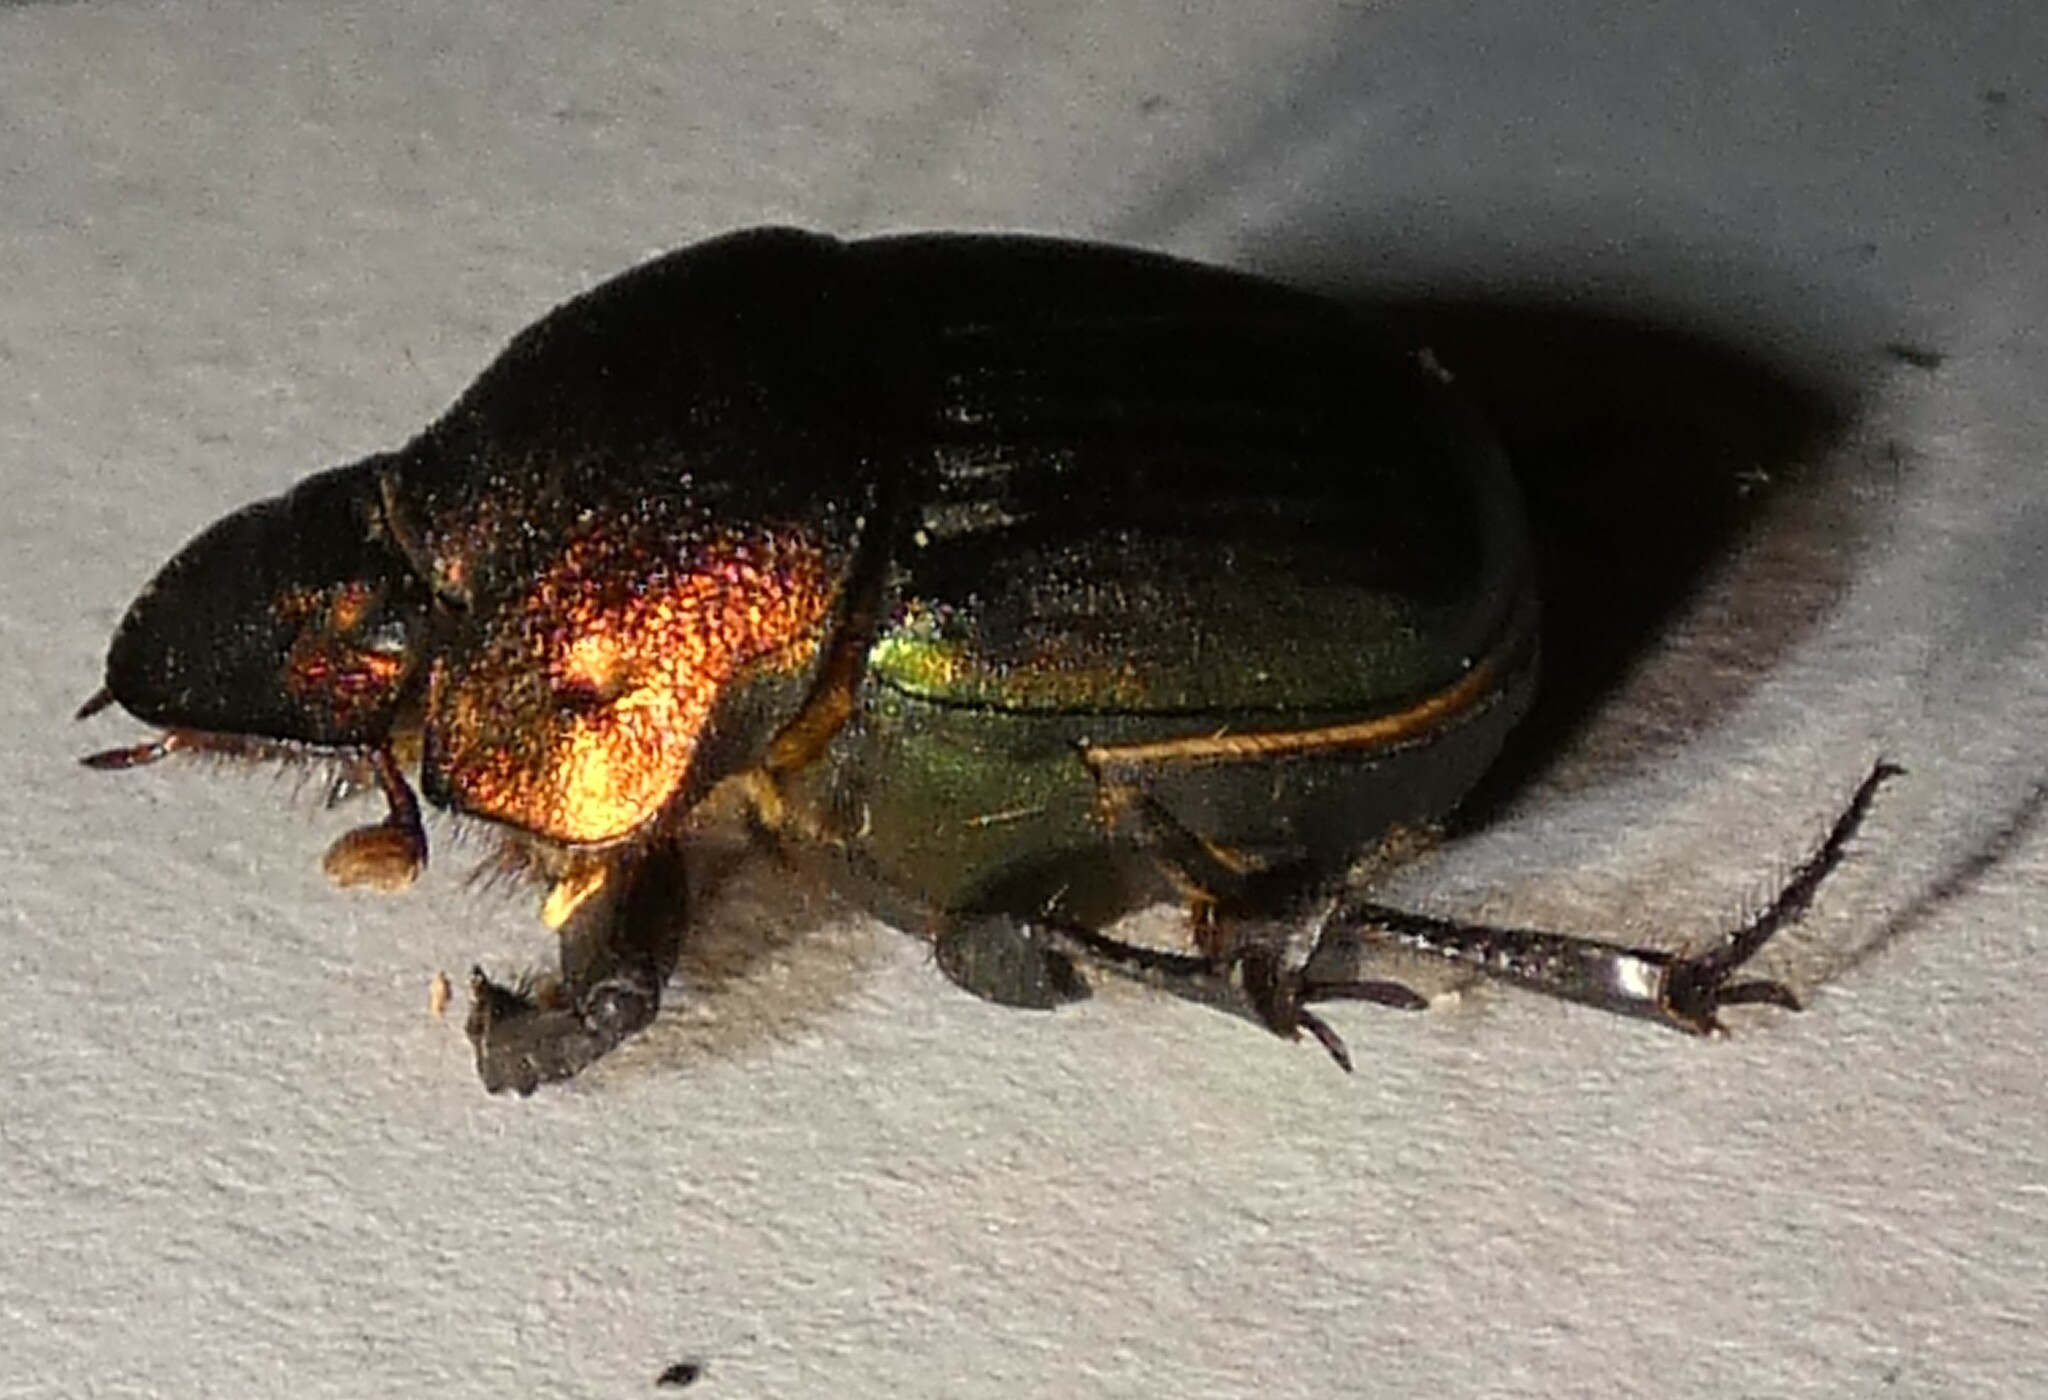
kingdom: Animalia
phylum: Arthropoda
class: Insecta
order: Coleoptera
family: Scarabaeidae
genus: Phanaeus
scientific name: Phanaeus igneus
